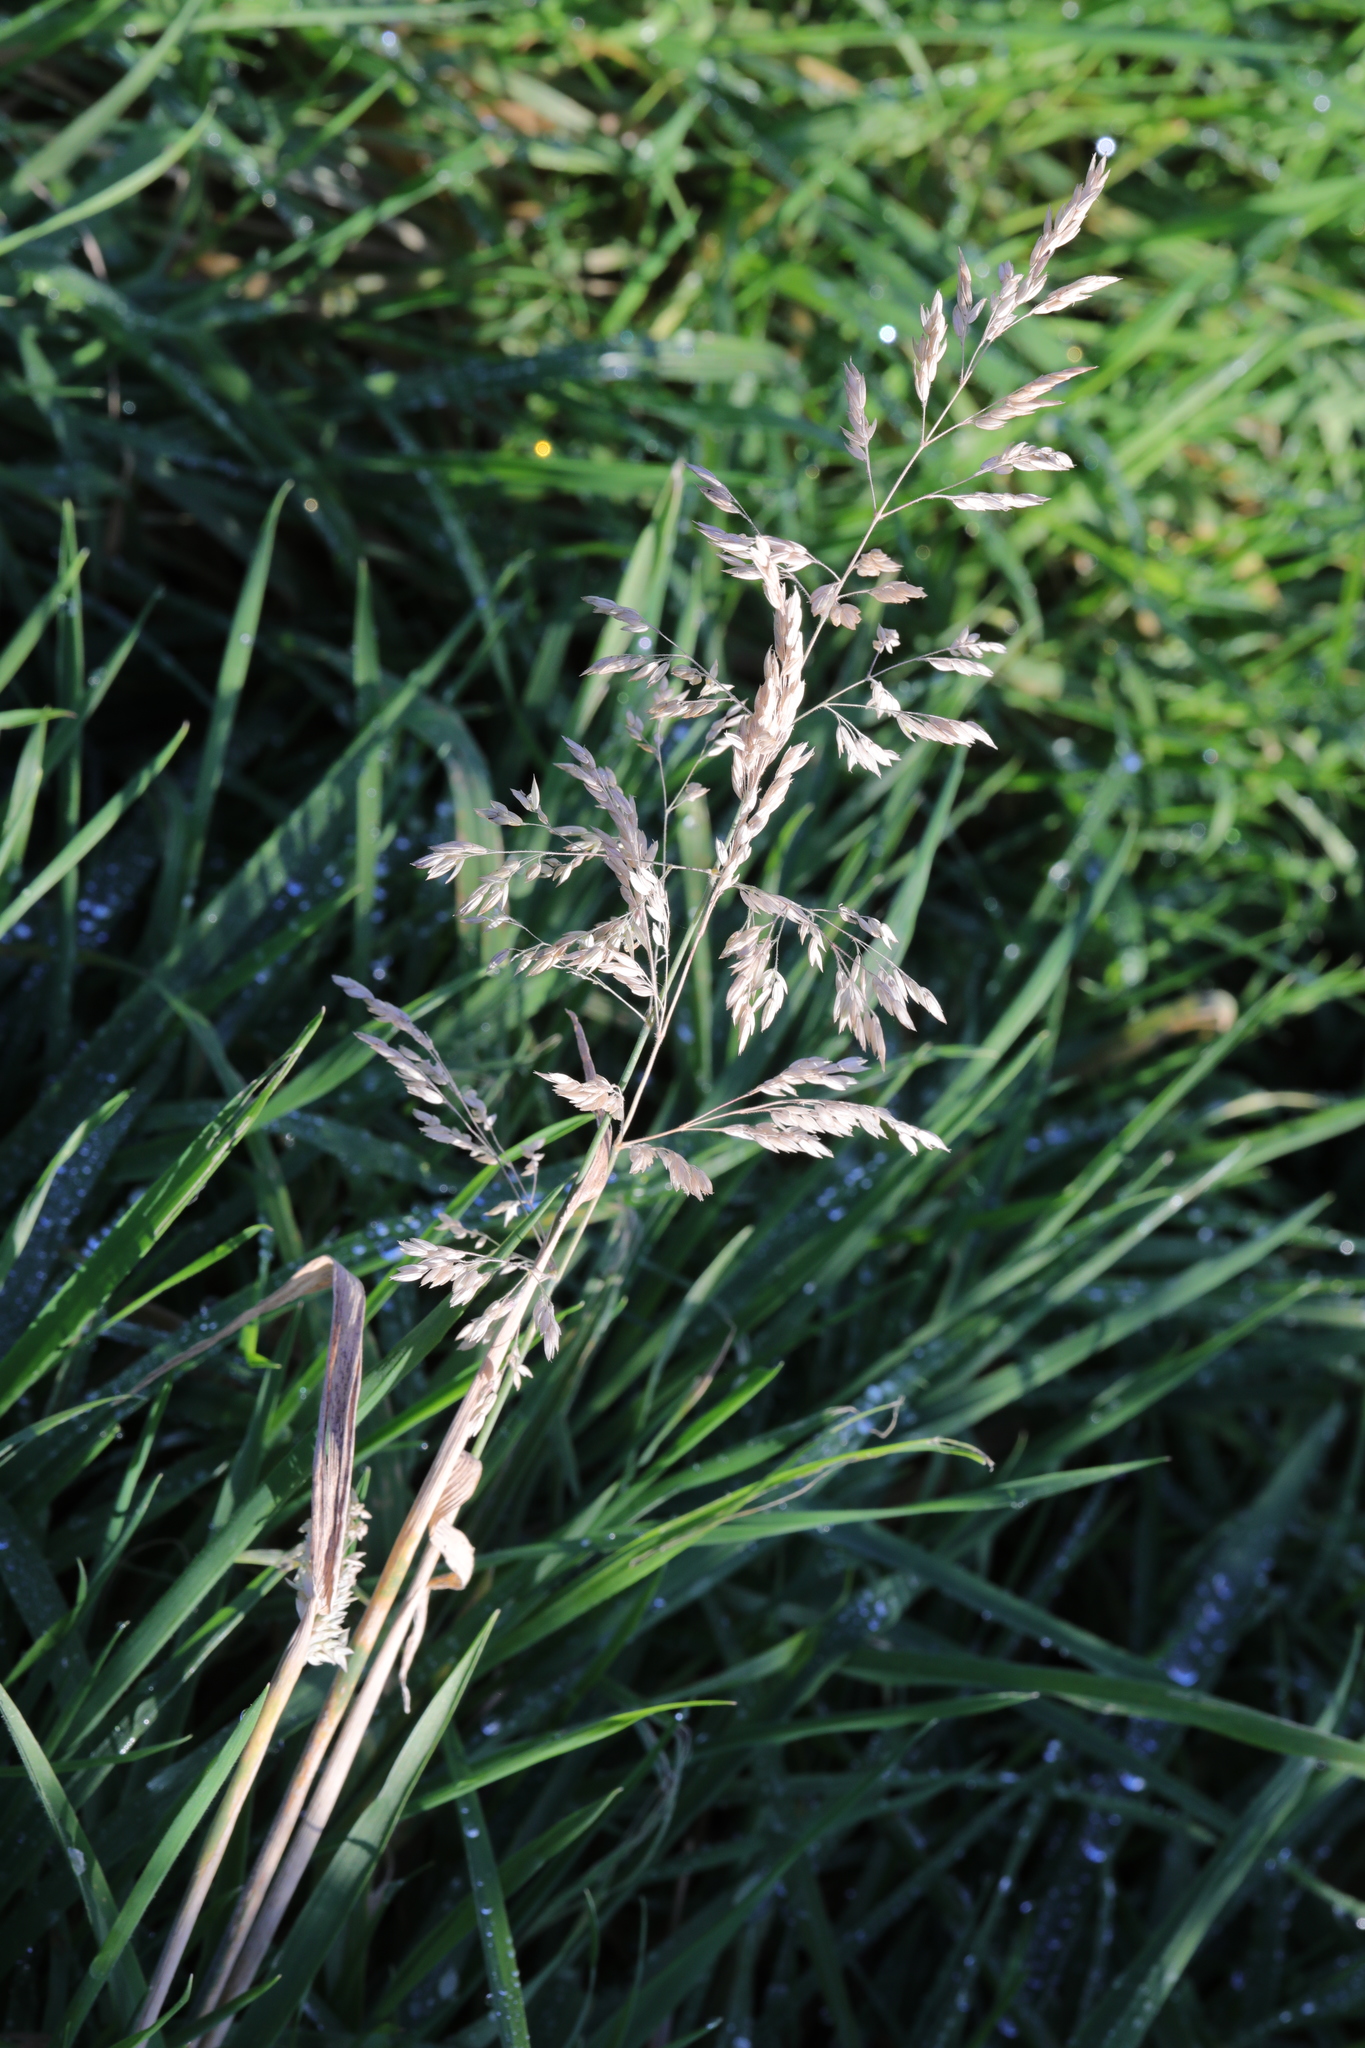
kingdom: Plantae
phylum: Tracheophyta
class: Liliopsida
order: Poales
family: Poaceae
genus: Holcus
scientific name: Holcus lanatus
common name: Yorkshire-fog
